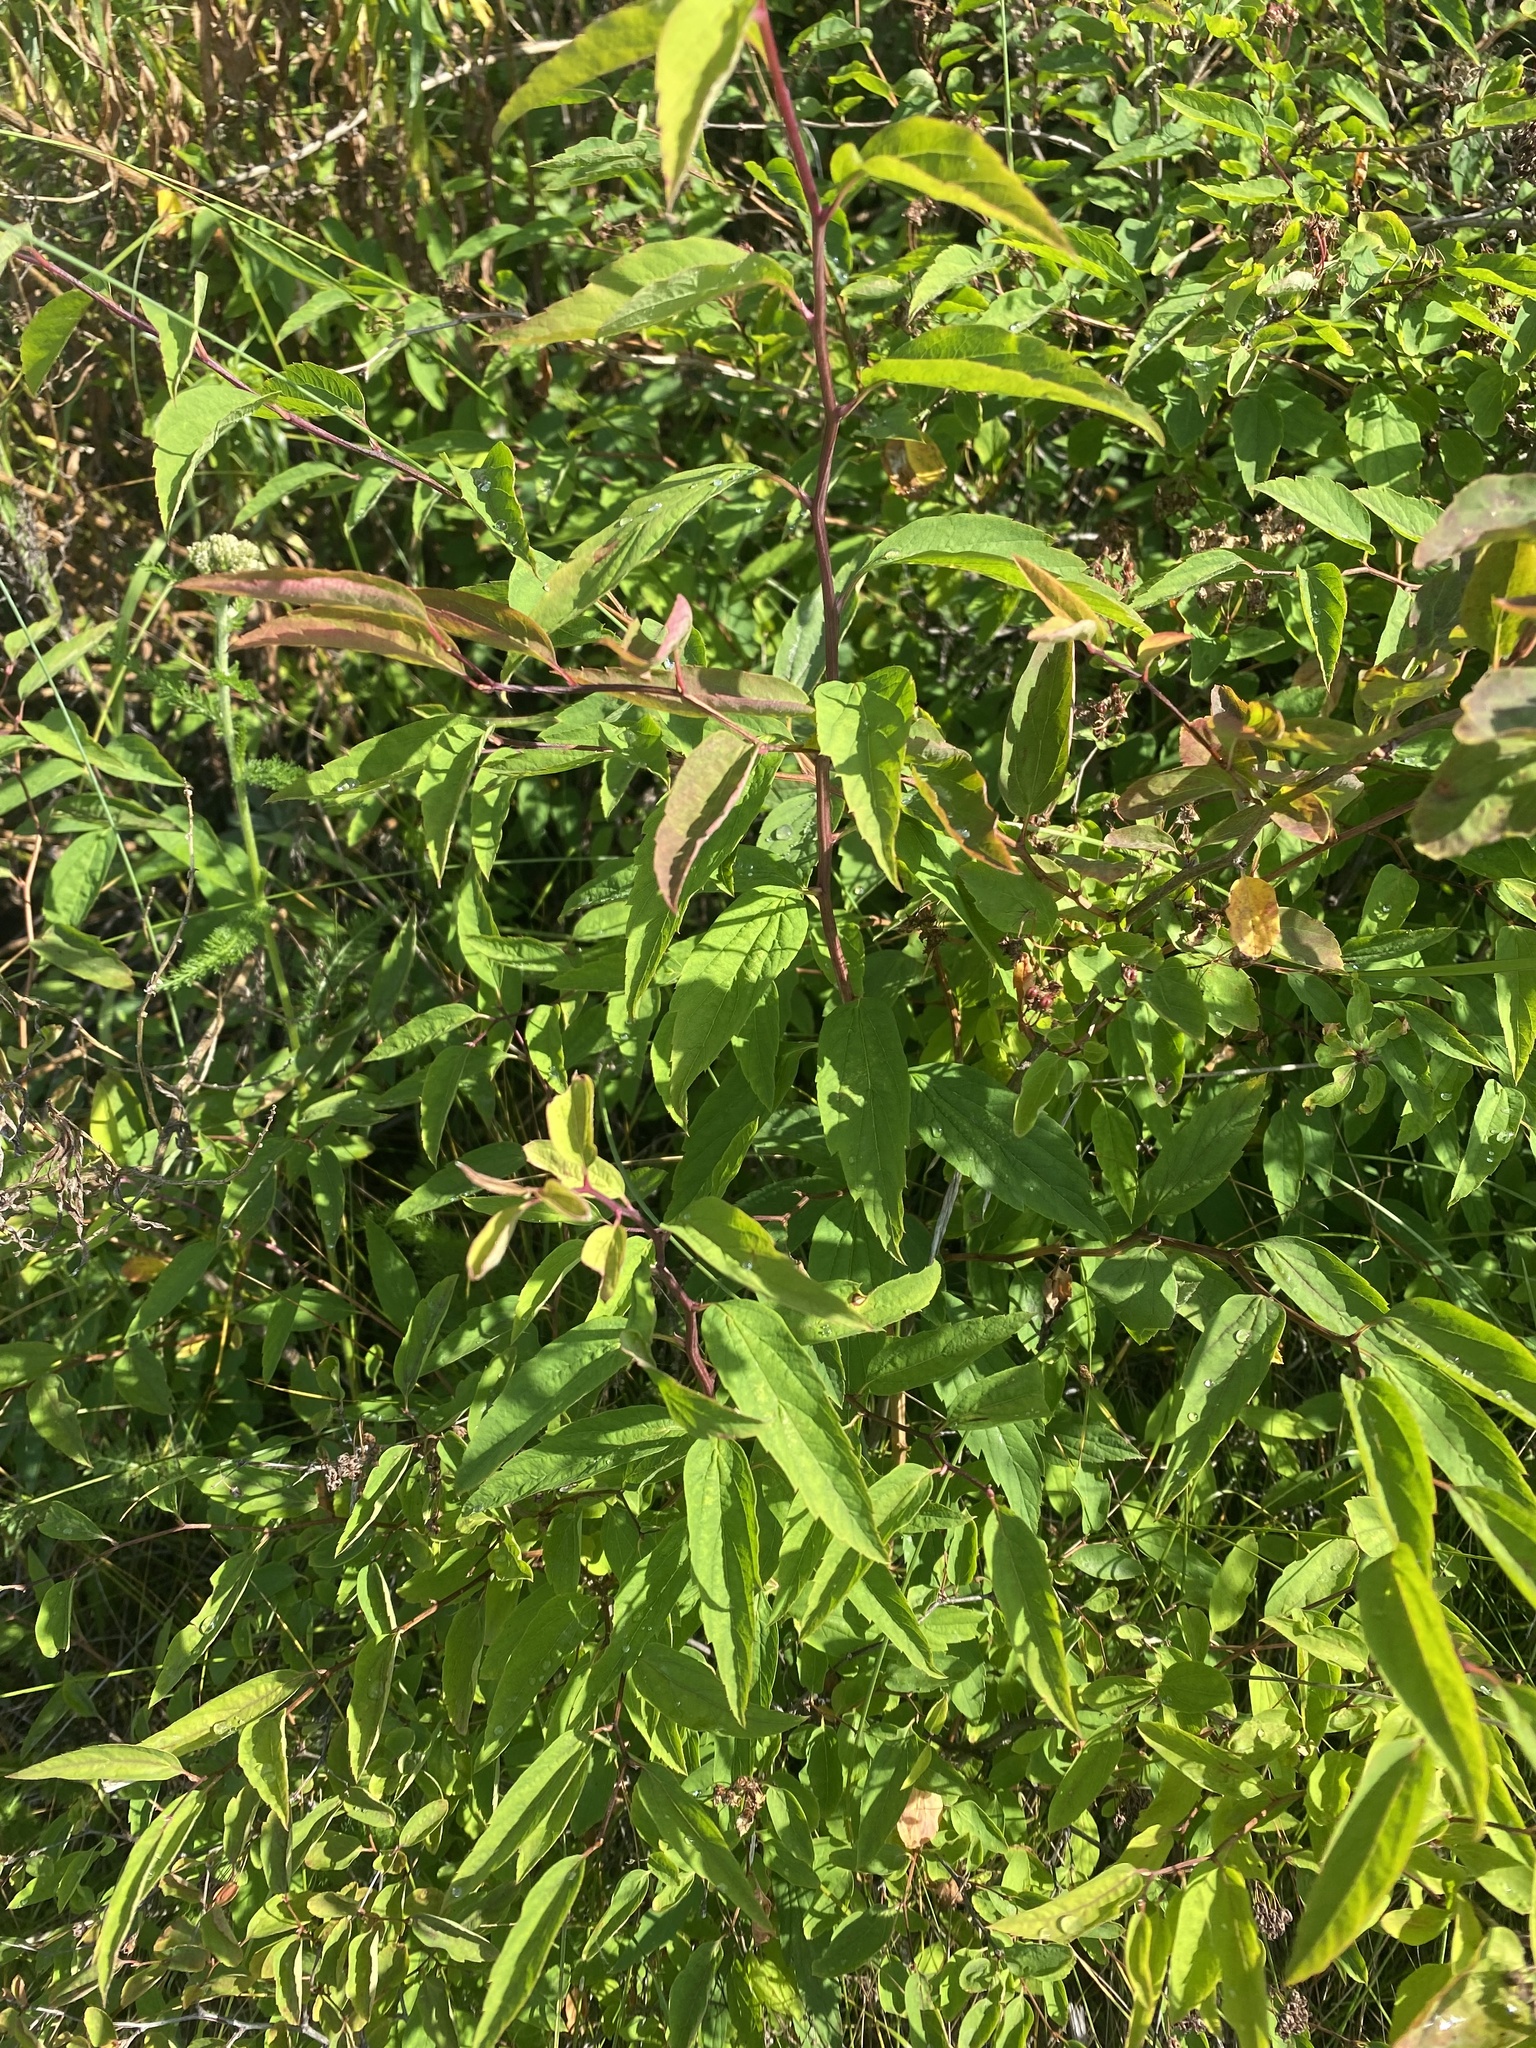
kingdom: Plantae
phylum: Tracheophyta
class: Magnoliopsida
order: Rosales
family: Rosaceae
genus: Spiraea
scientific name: Spiraea flexuosa
